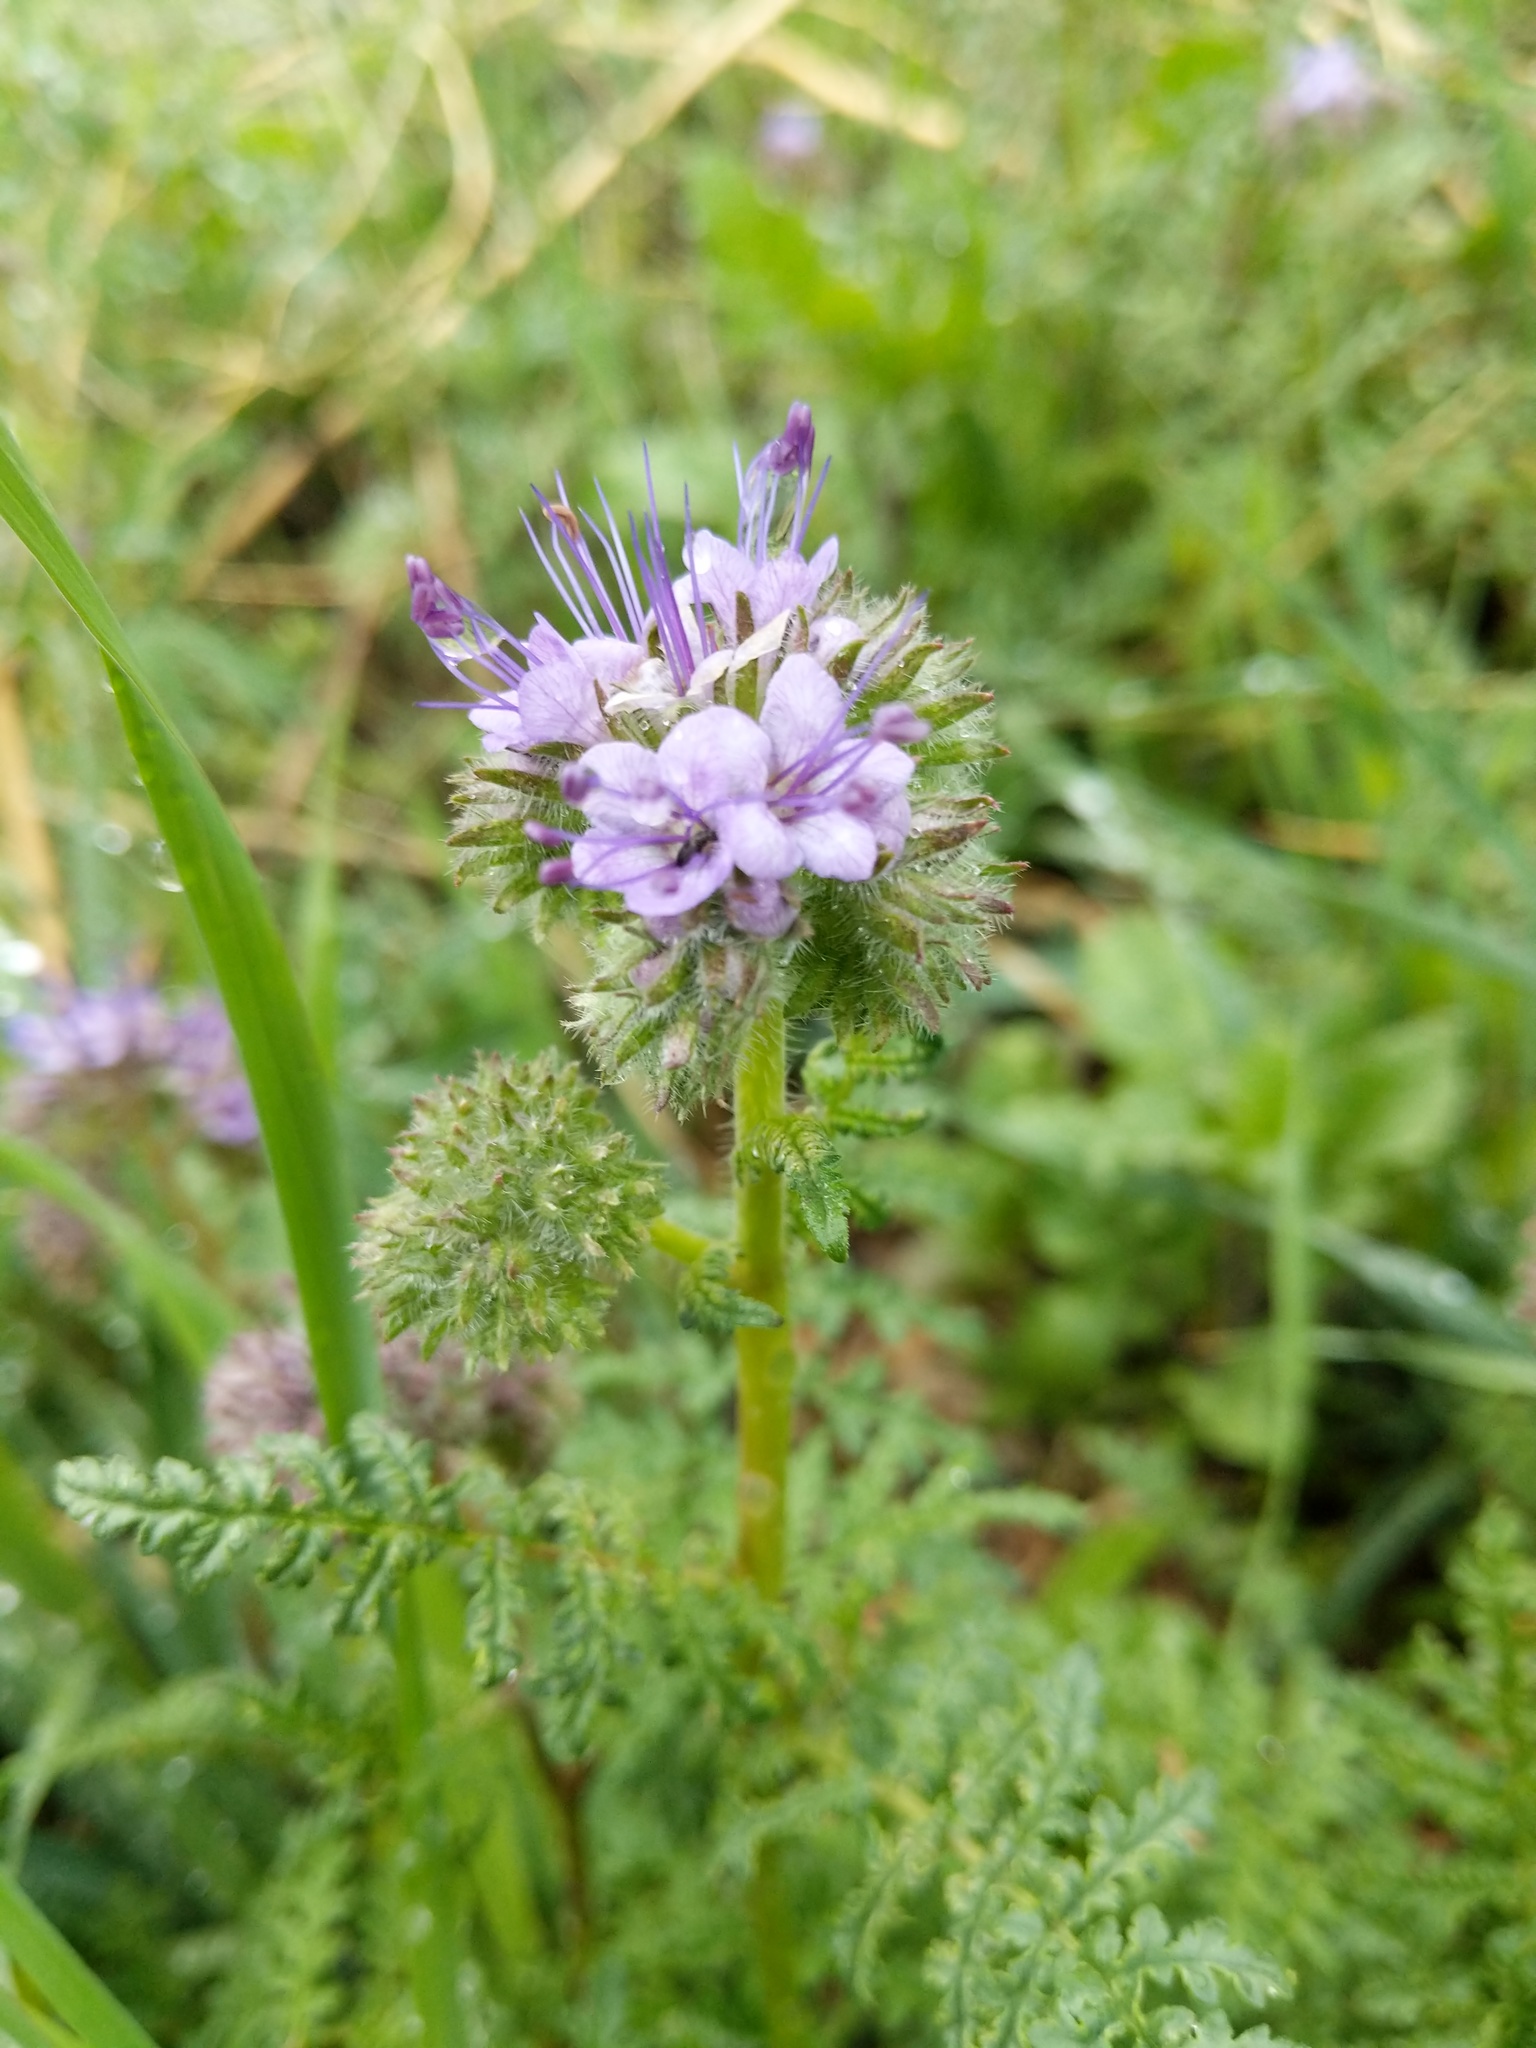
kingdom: Plantae
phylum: Tracheophyta
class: Magnoliopsida
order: Boraginales
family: Hydrophyllaceae
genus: Phacelia
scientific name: Phacelia tanacetifolia
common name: Phacelia
